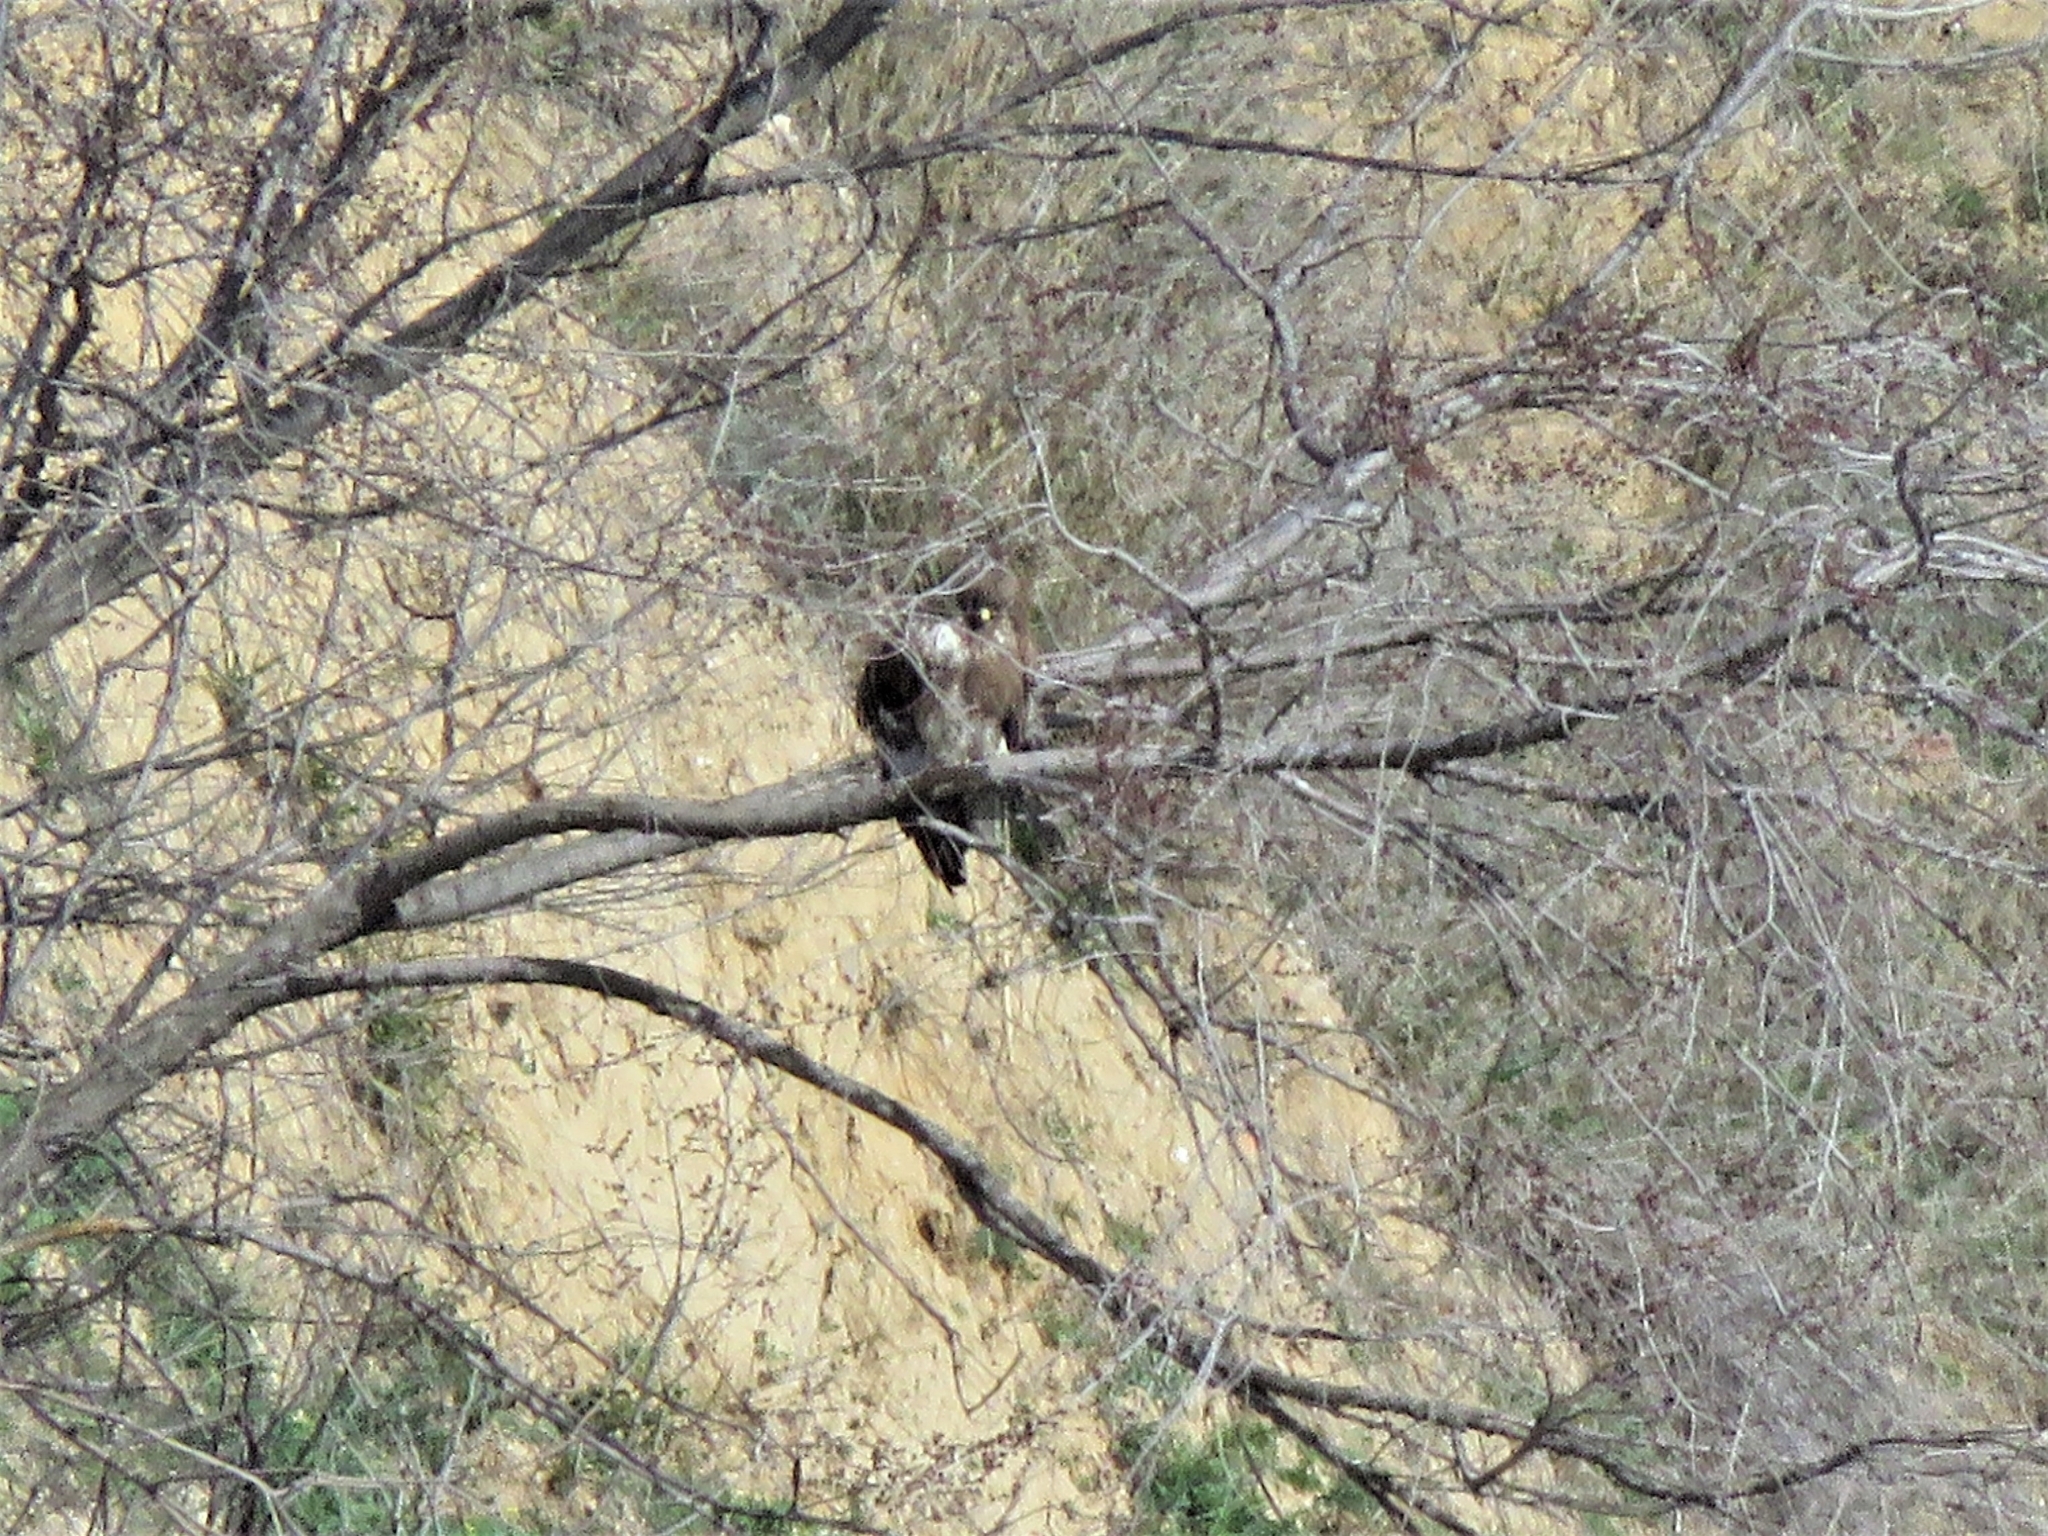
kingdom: Animalia
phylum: Chordata
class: Aves
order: Accipitriformes
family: Accipitridae
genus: Buteo
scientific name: Buteo buteo
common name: Common buzzard
